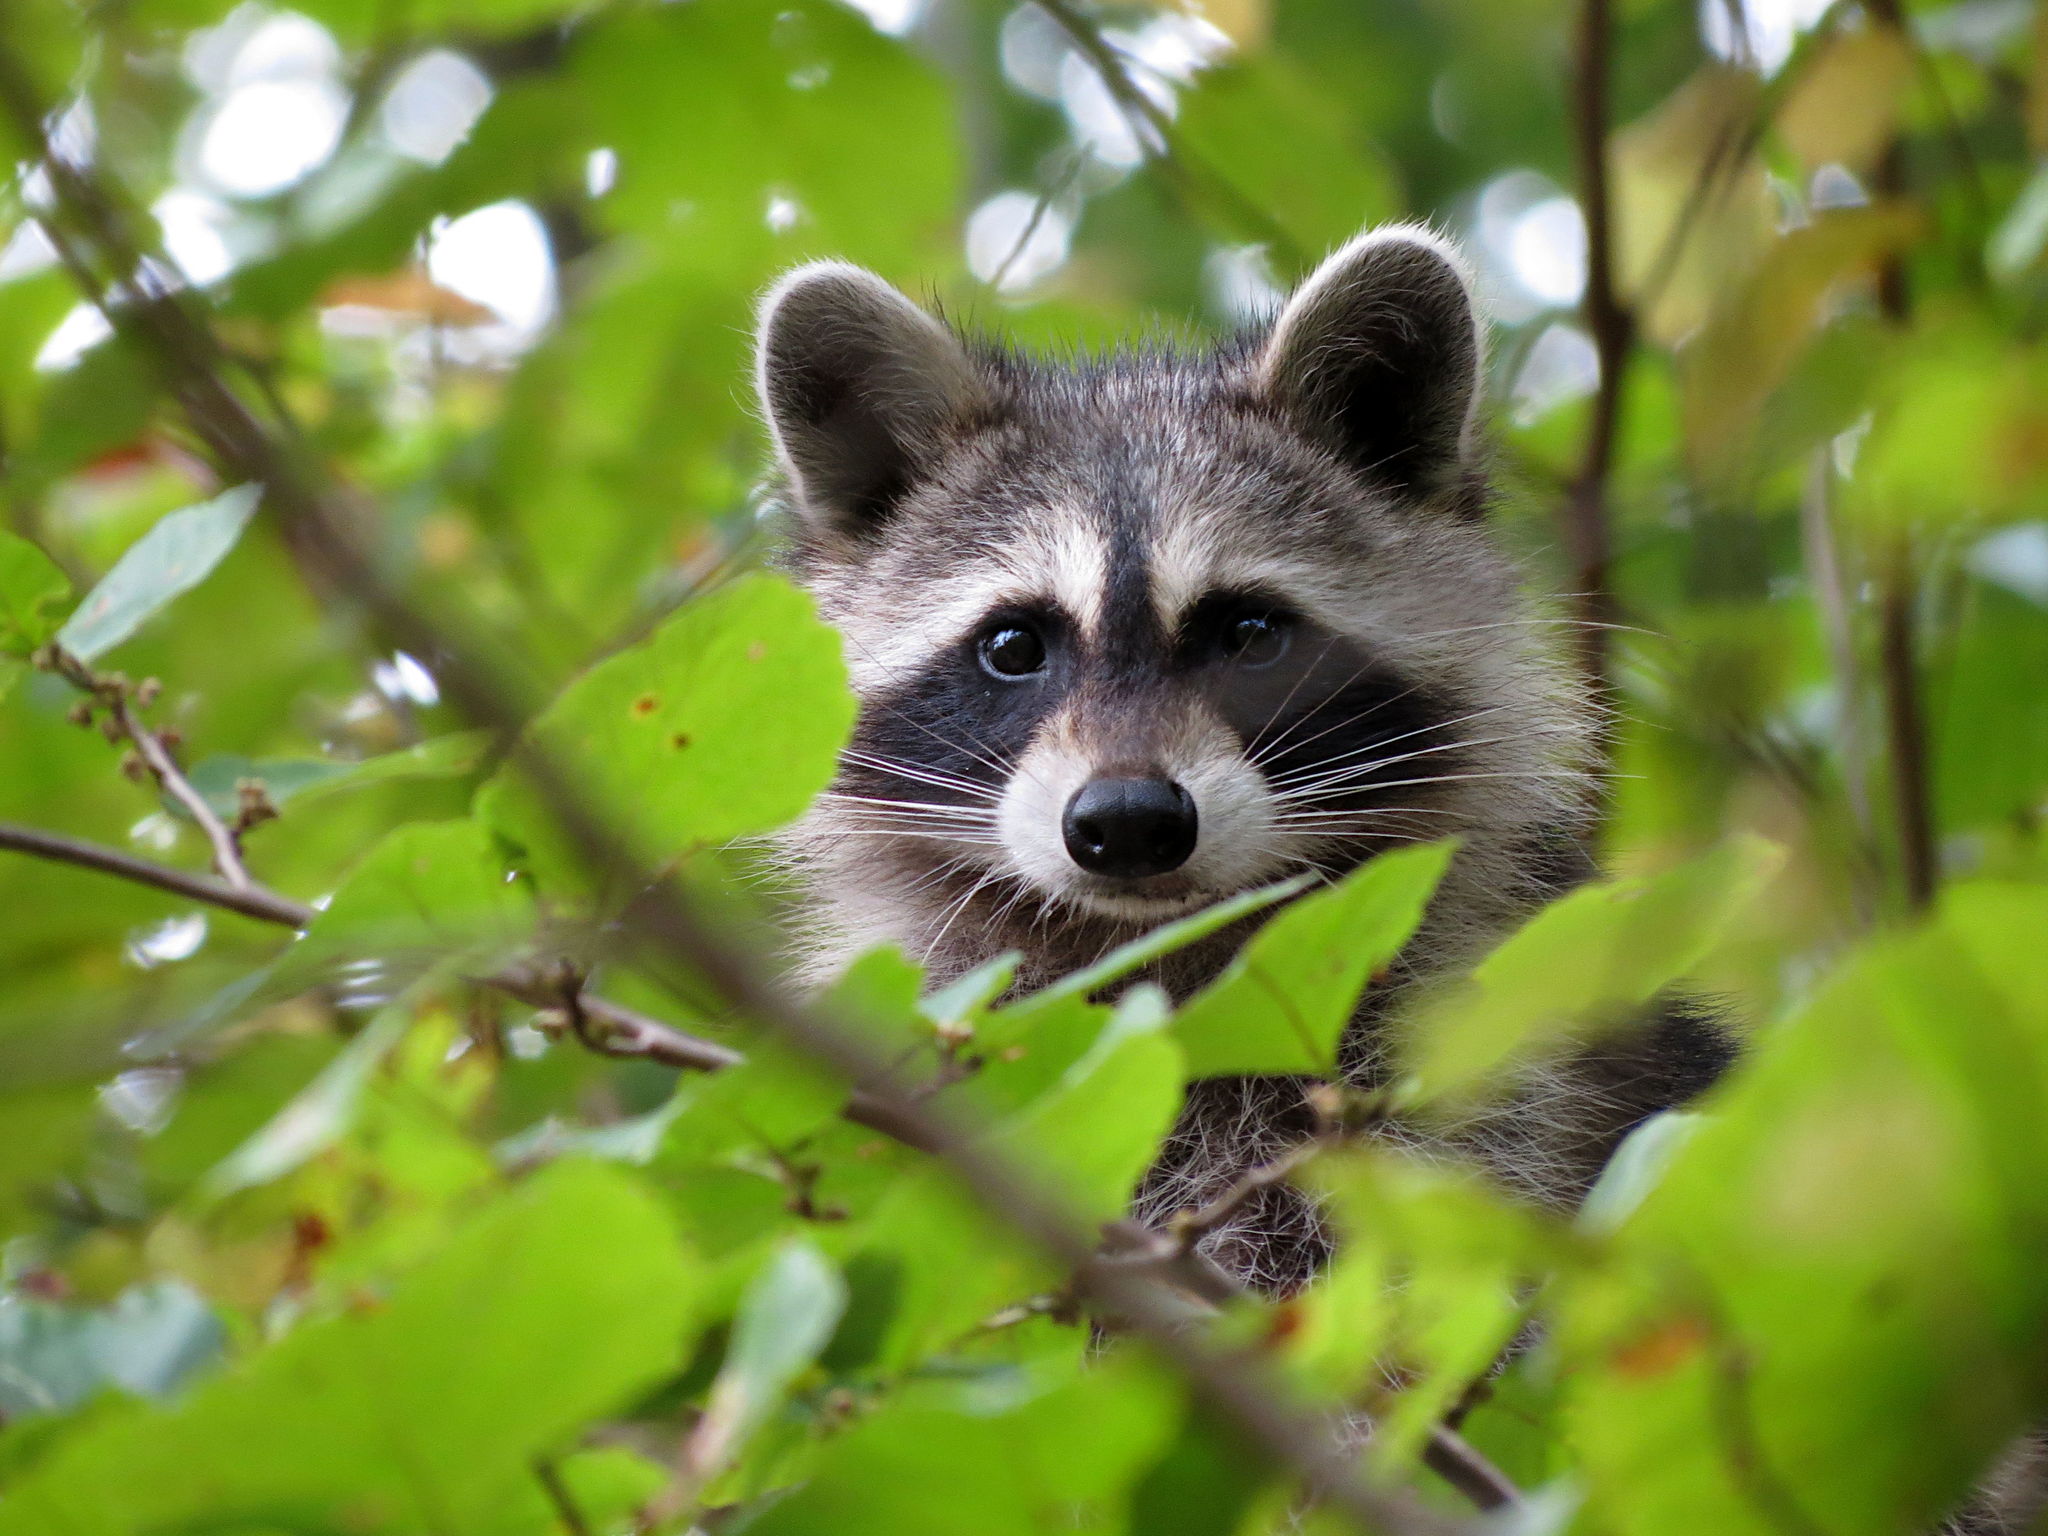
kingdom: Animalia
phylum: Chordata
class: Mammalia
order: Carnivora
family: Procyonidae
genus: Procyon
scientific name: Procyon lotor
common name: Raccoon
